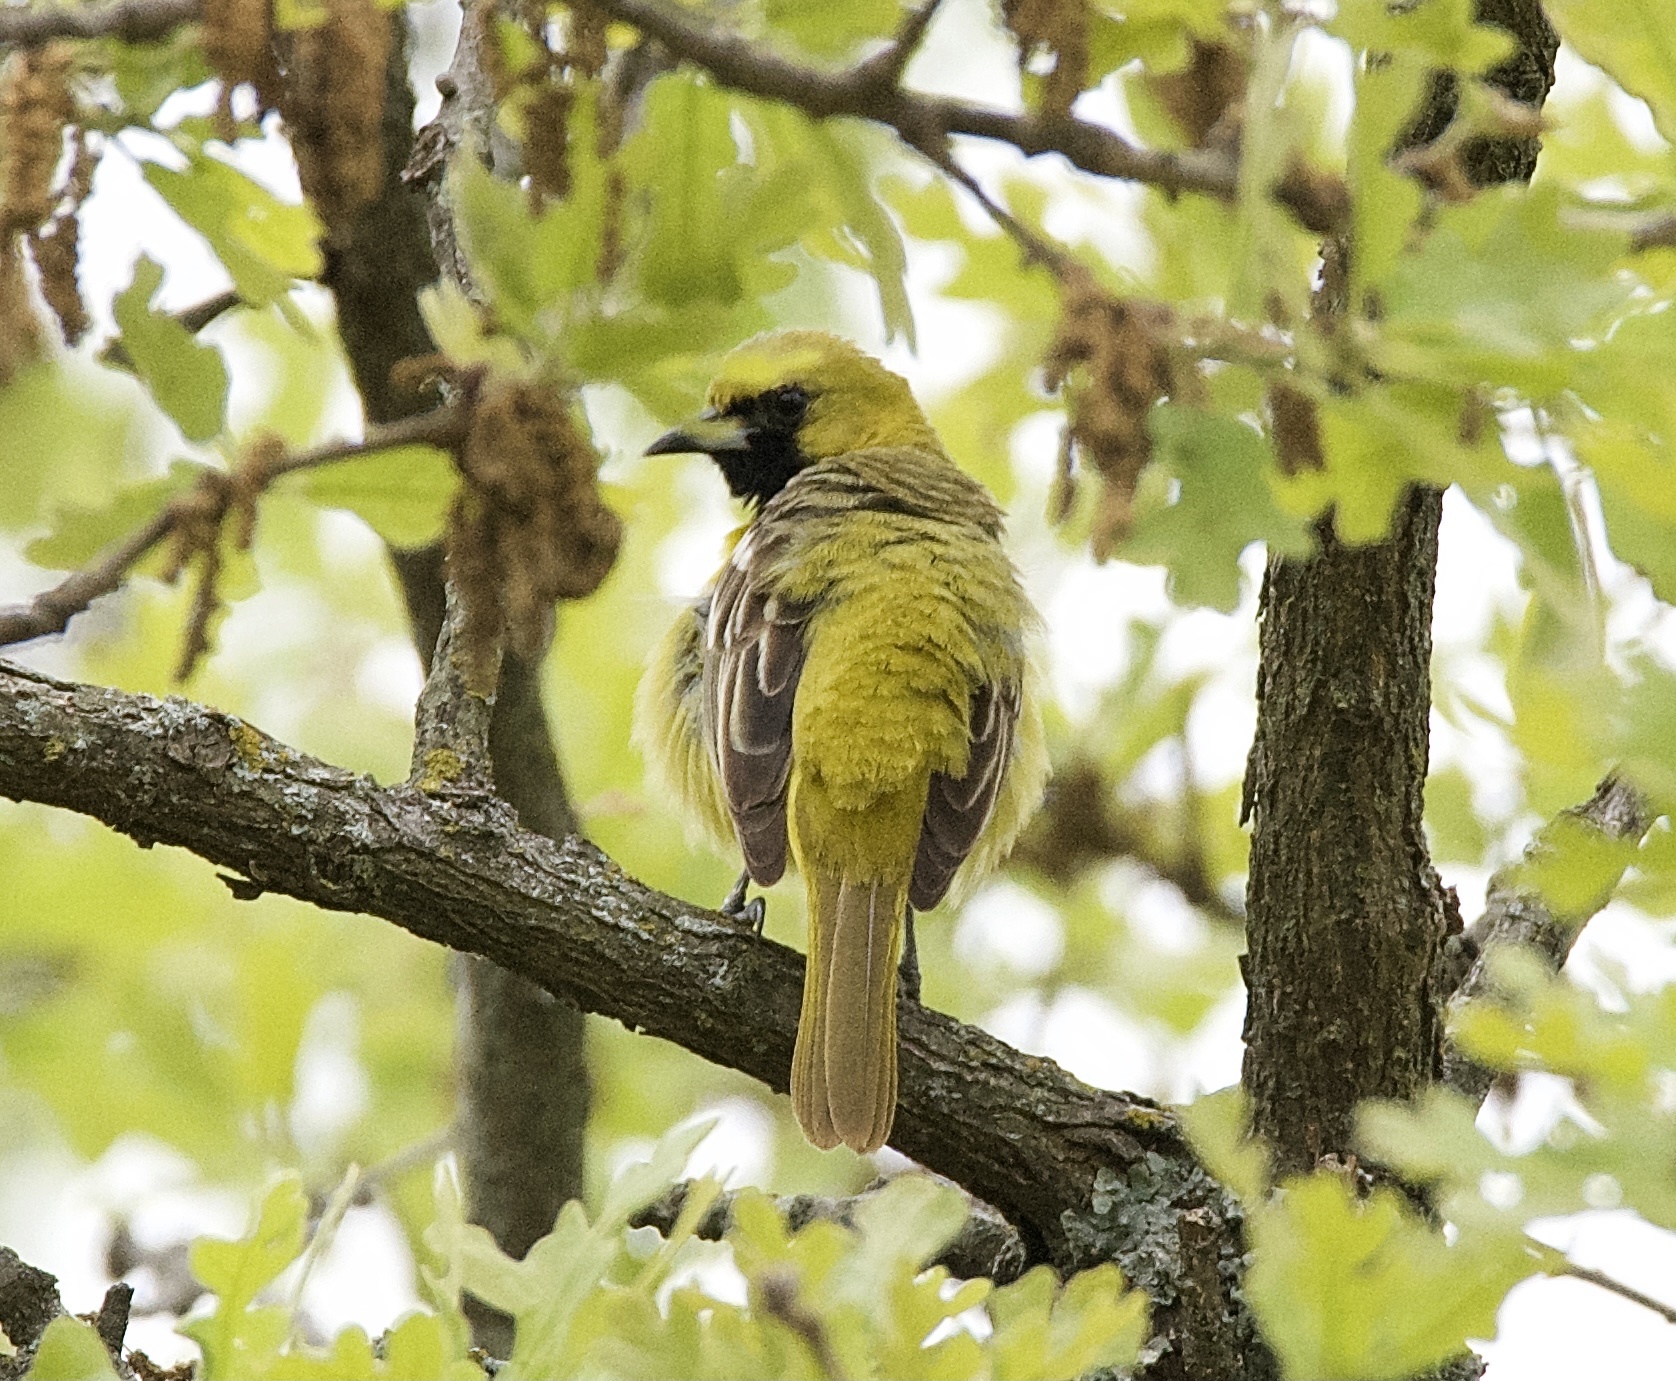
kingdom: Animalia
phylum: Chordata
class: Aves
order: Passeriformes
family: Icteridae
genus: Icterus
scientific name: Icterus spurius
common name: Orchard oriole
